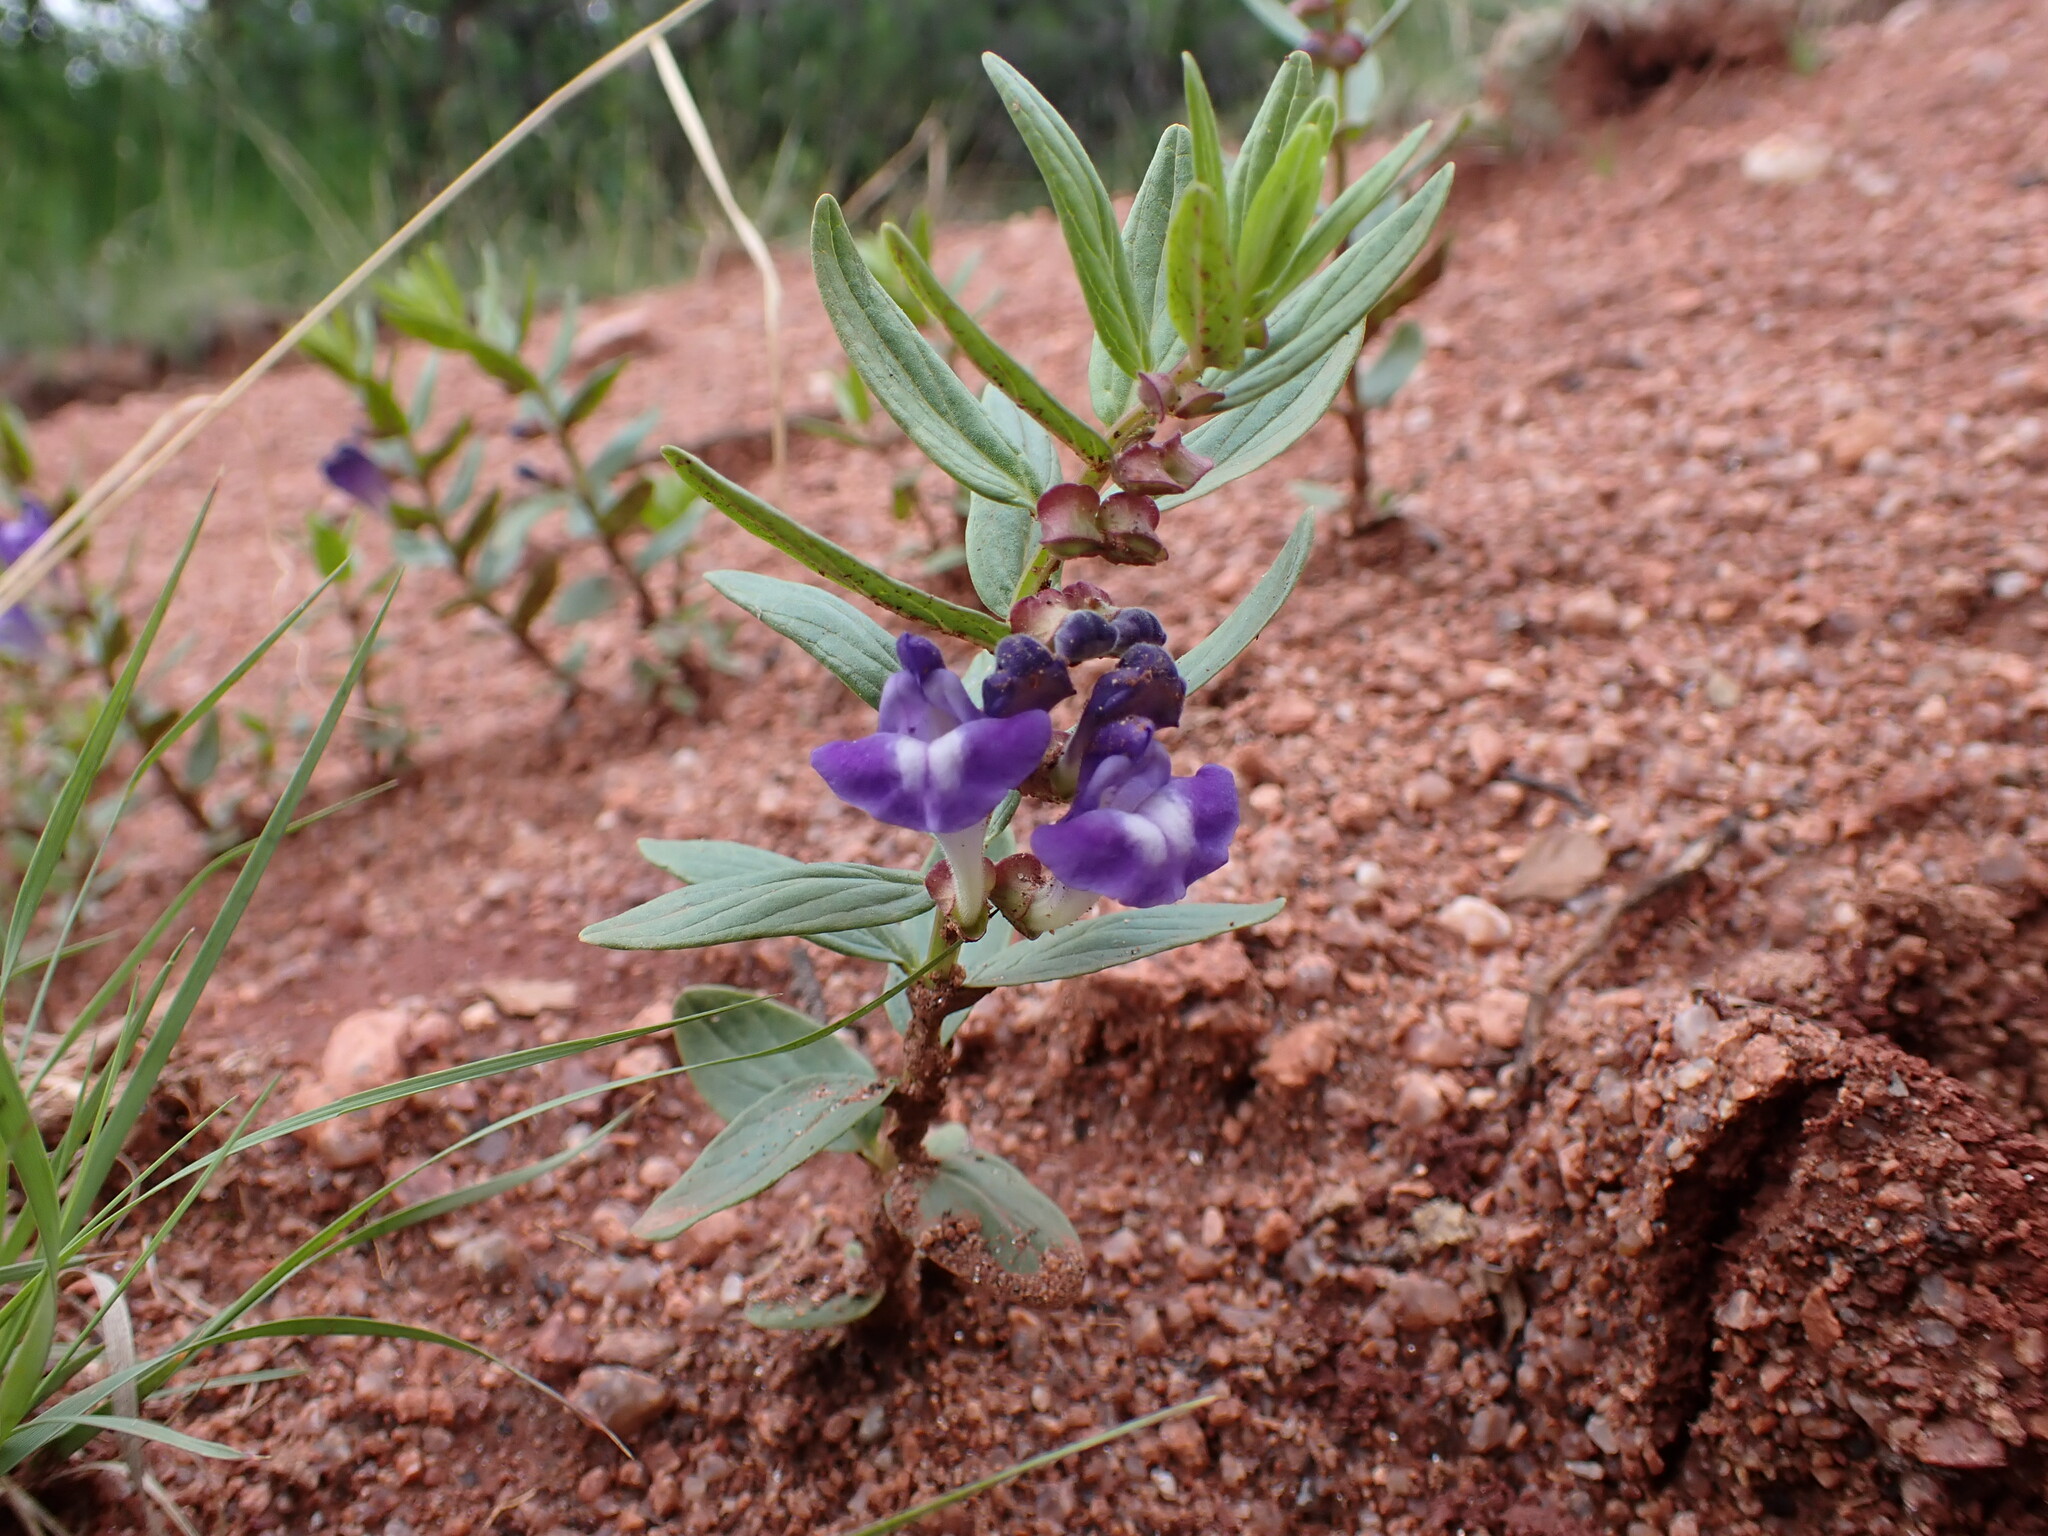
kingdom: Plantae
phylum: Tracheophyta
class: Magnoliopsida
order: Lamiales
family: Lamiaceae
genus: Scutellaria
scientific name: Scutellaria brittonii
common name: Britton's skullcap
